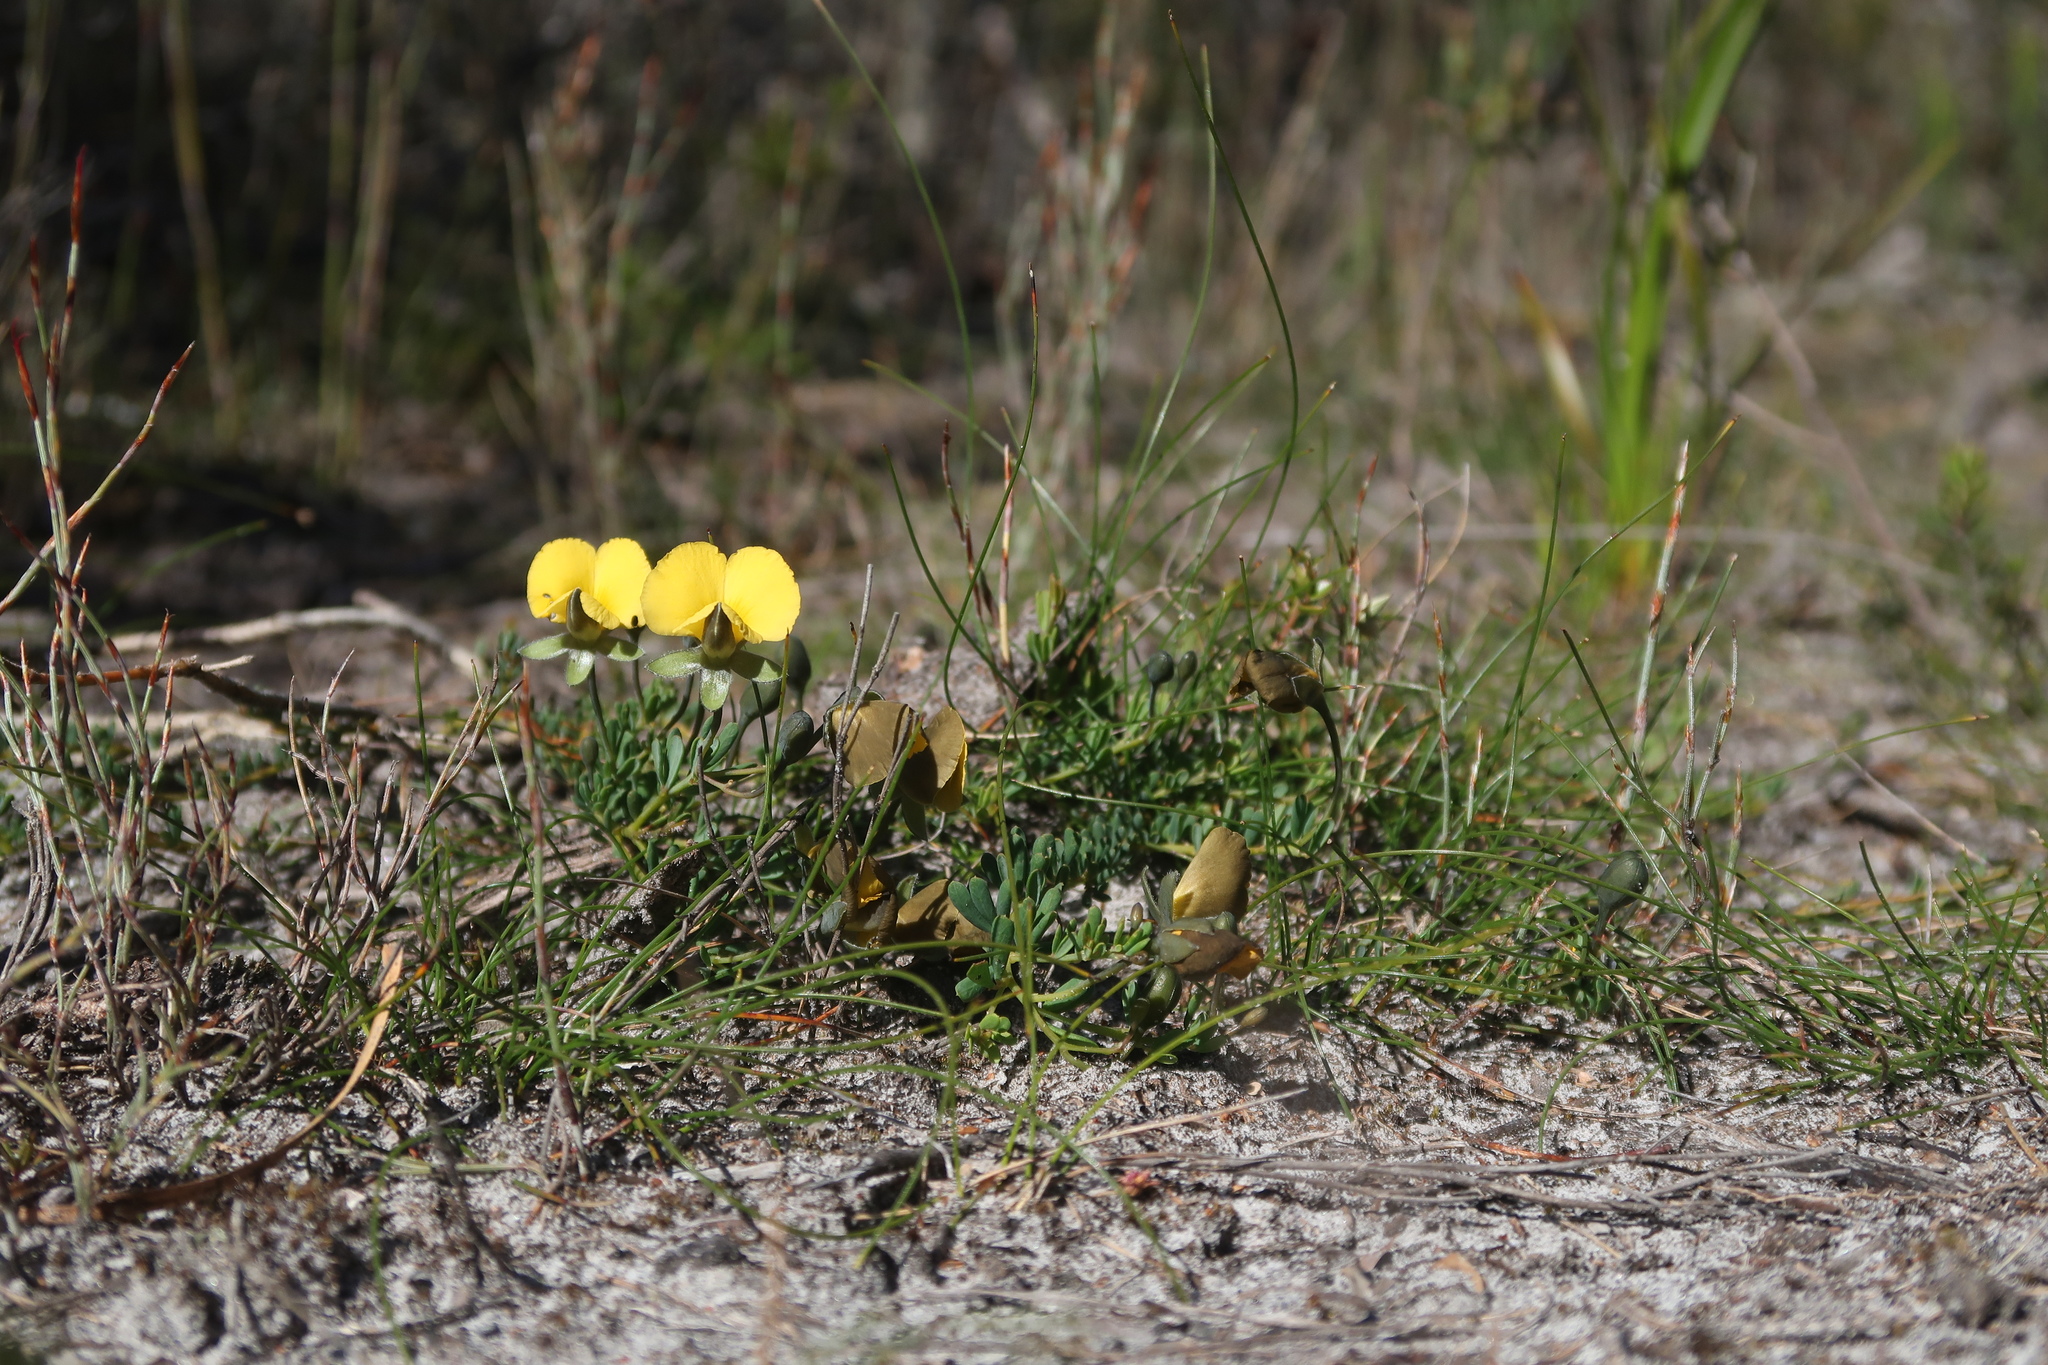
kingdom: Plantae
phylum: Tracheophyta
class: Magnoliopsida
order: Fabales
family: Fabaceae
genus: Gompholobium
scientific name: Gompholobium huegelii
